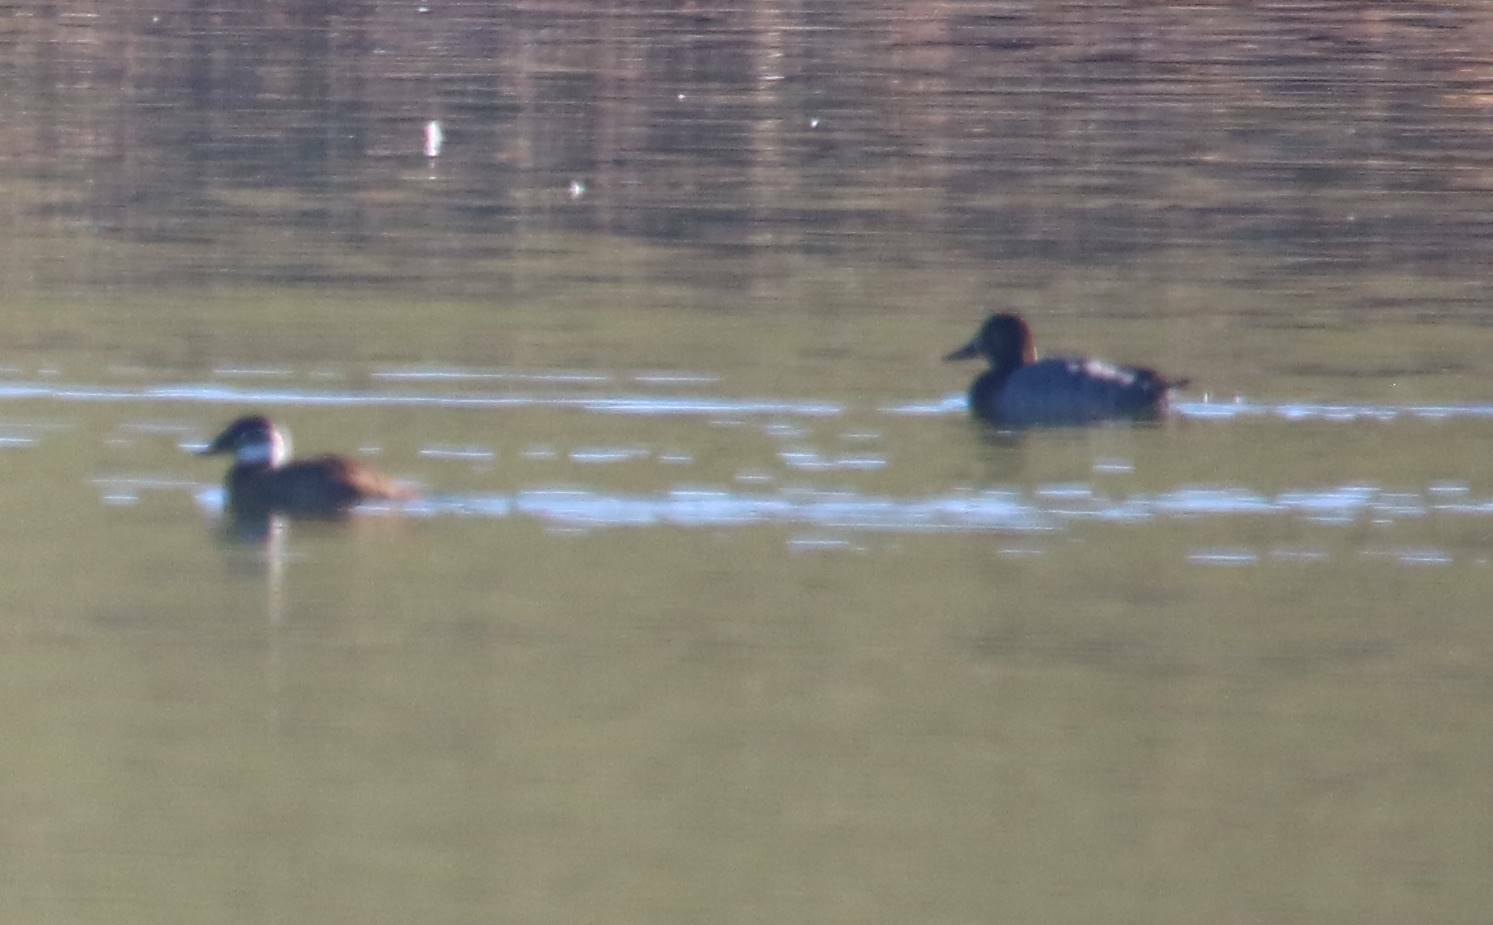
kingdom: Animalia
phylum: Chordata
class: Aves
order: Anseriformes
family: Anatidae
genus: Oxyura
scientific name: Oxyura leucocephala
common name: White-headed duck
